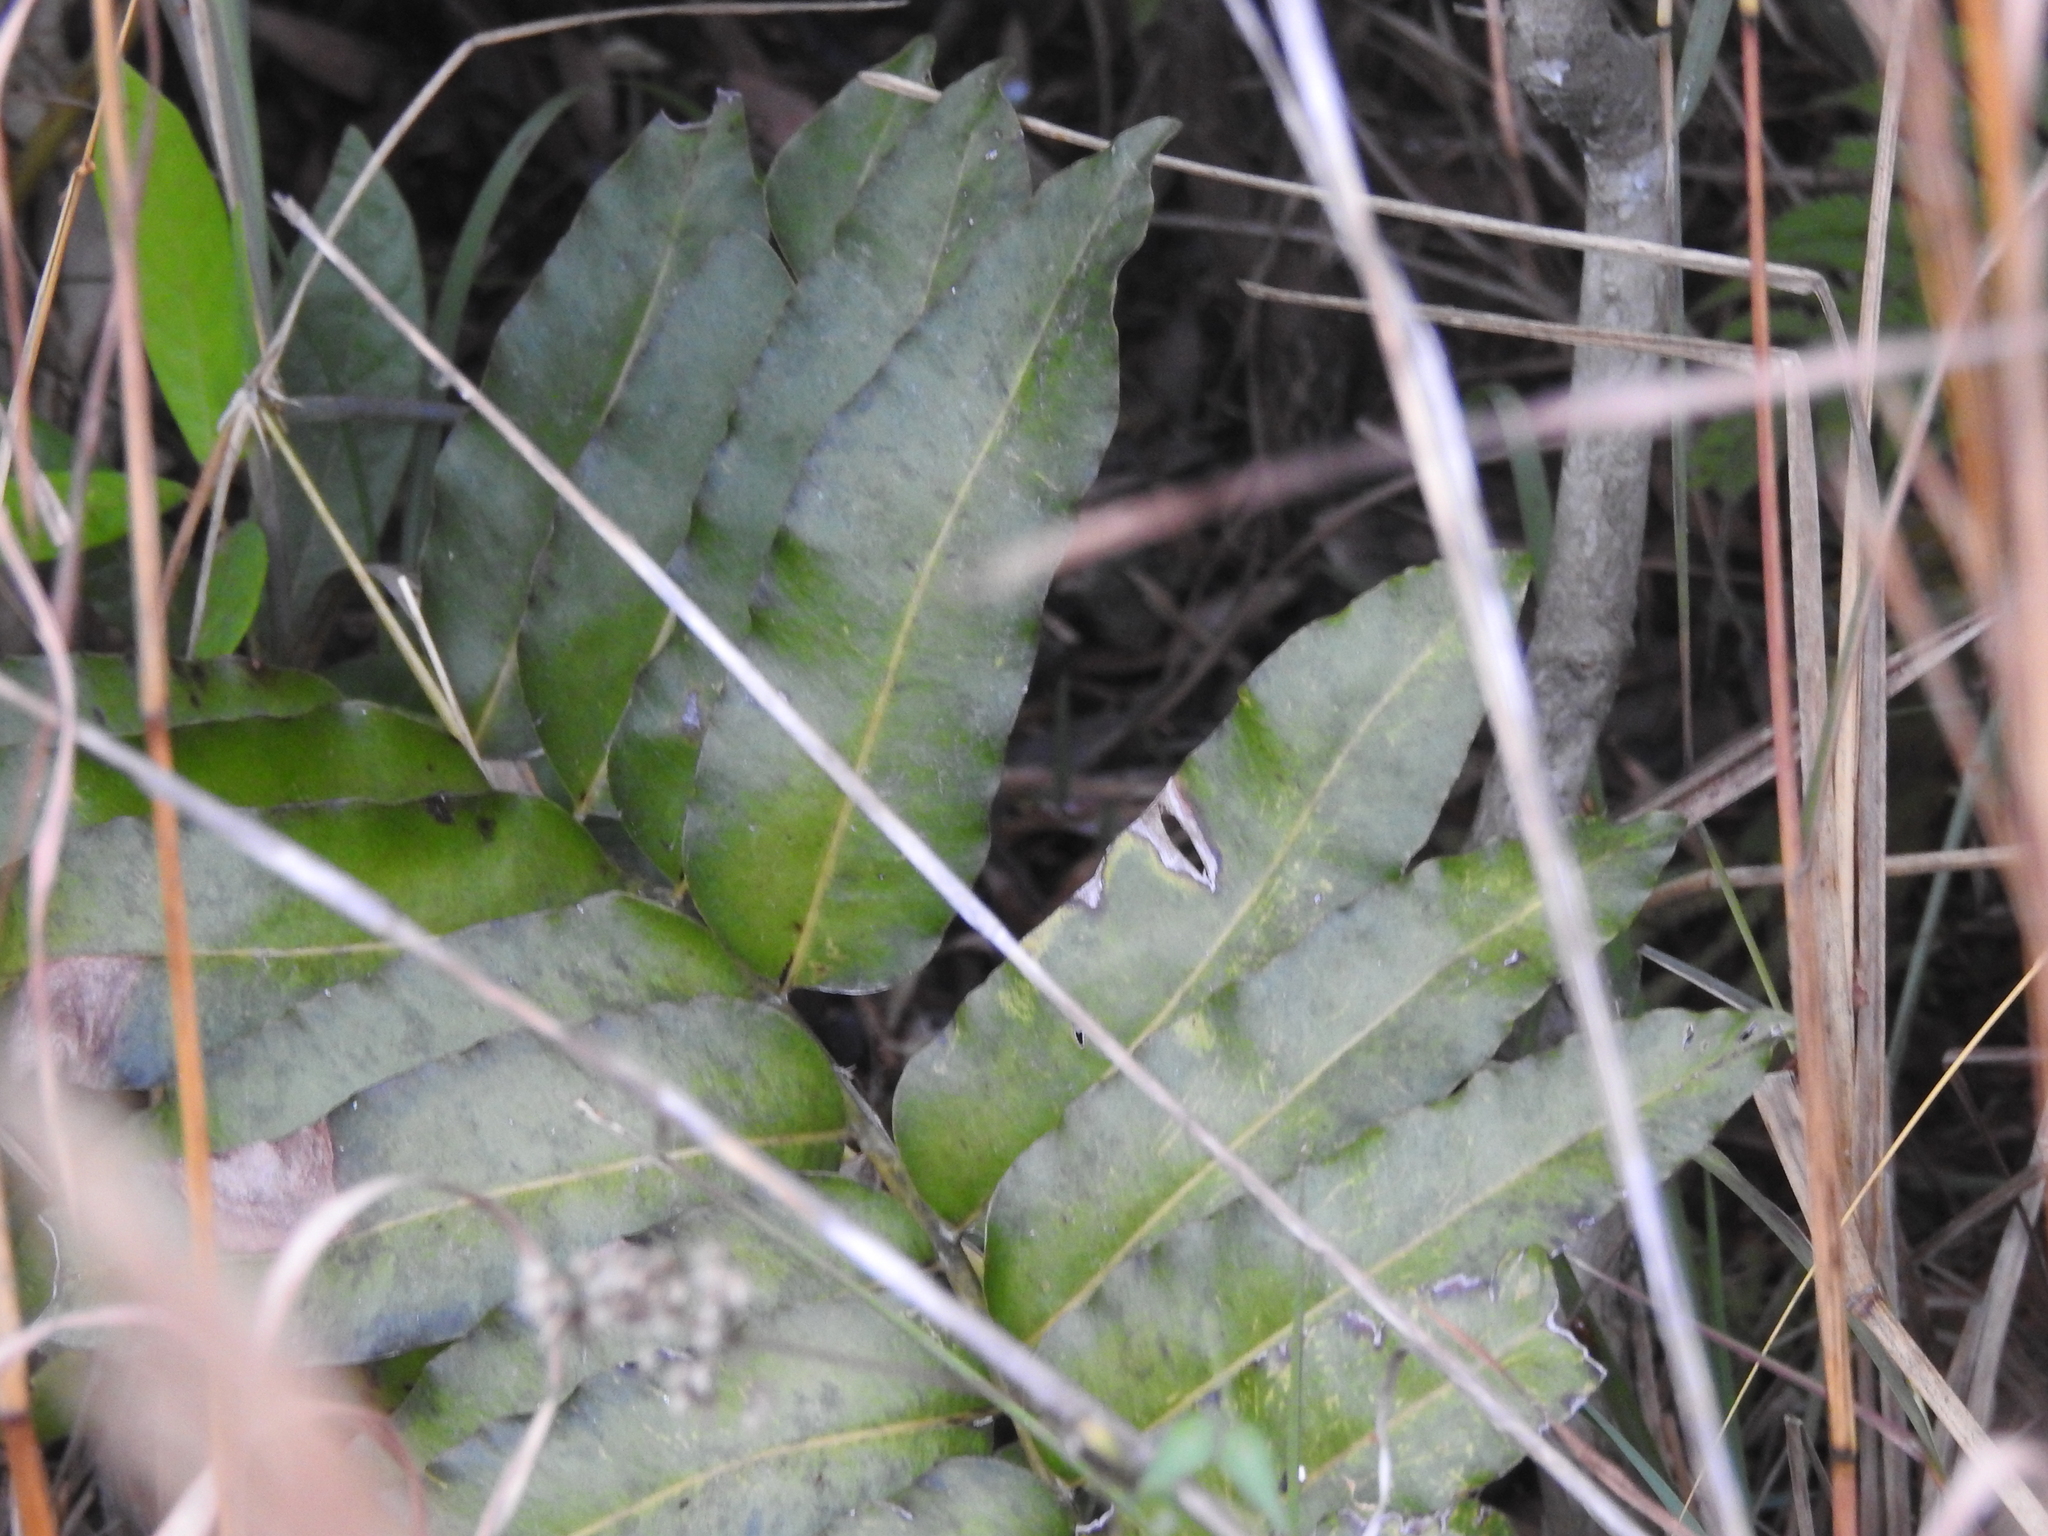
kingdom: Plantae
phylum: Tracheophyta
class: Polypodiopsida
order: Polypodiales
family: Pteridaceae
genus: Acrostichum
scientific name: Acrostichum danaeifolium
